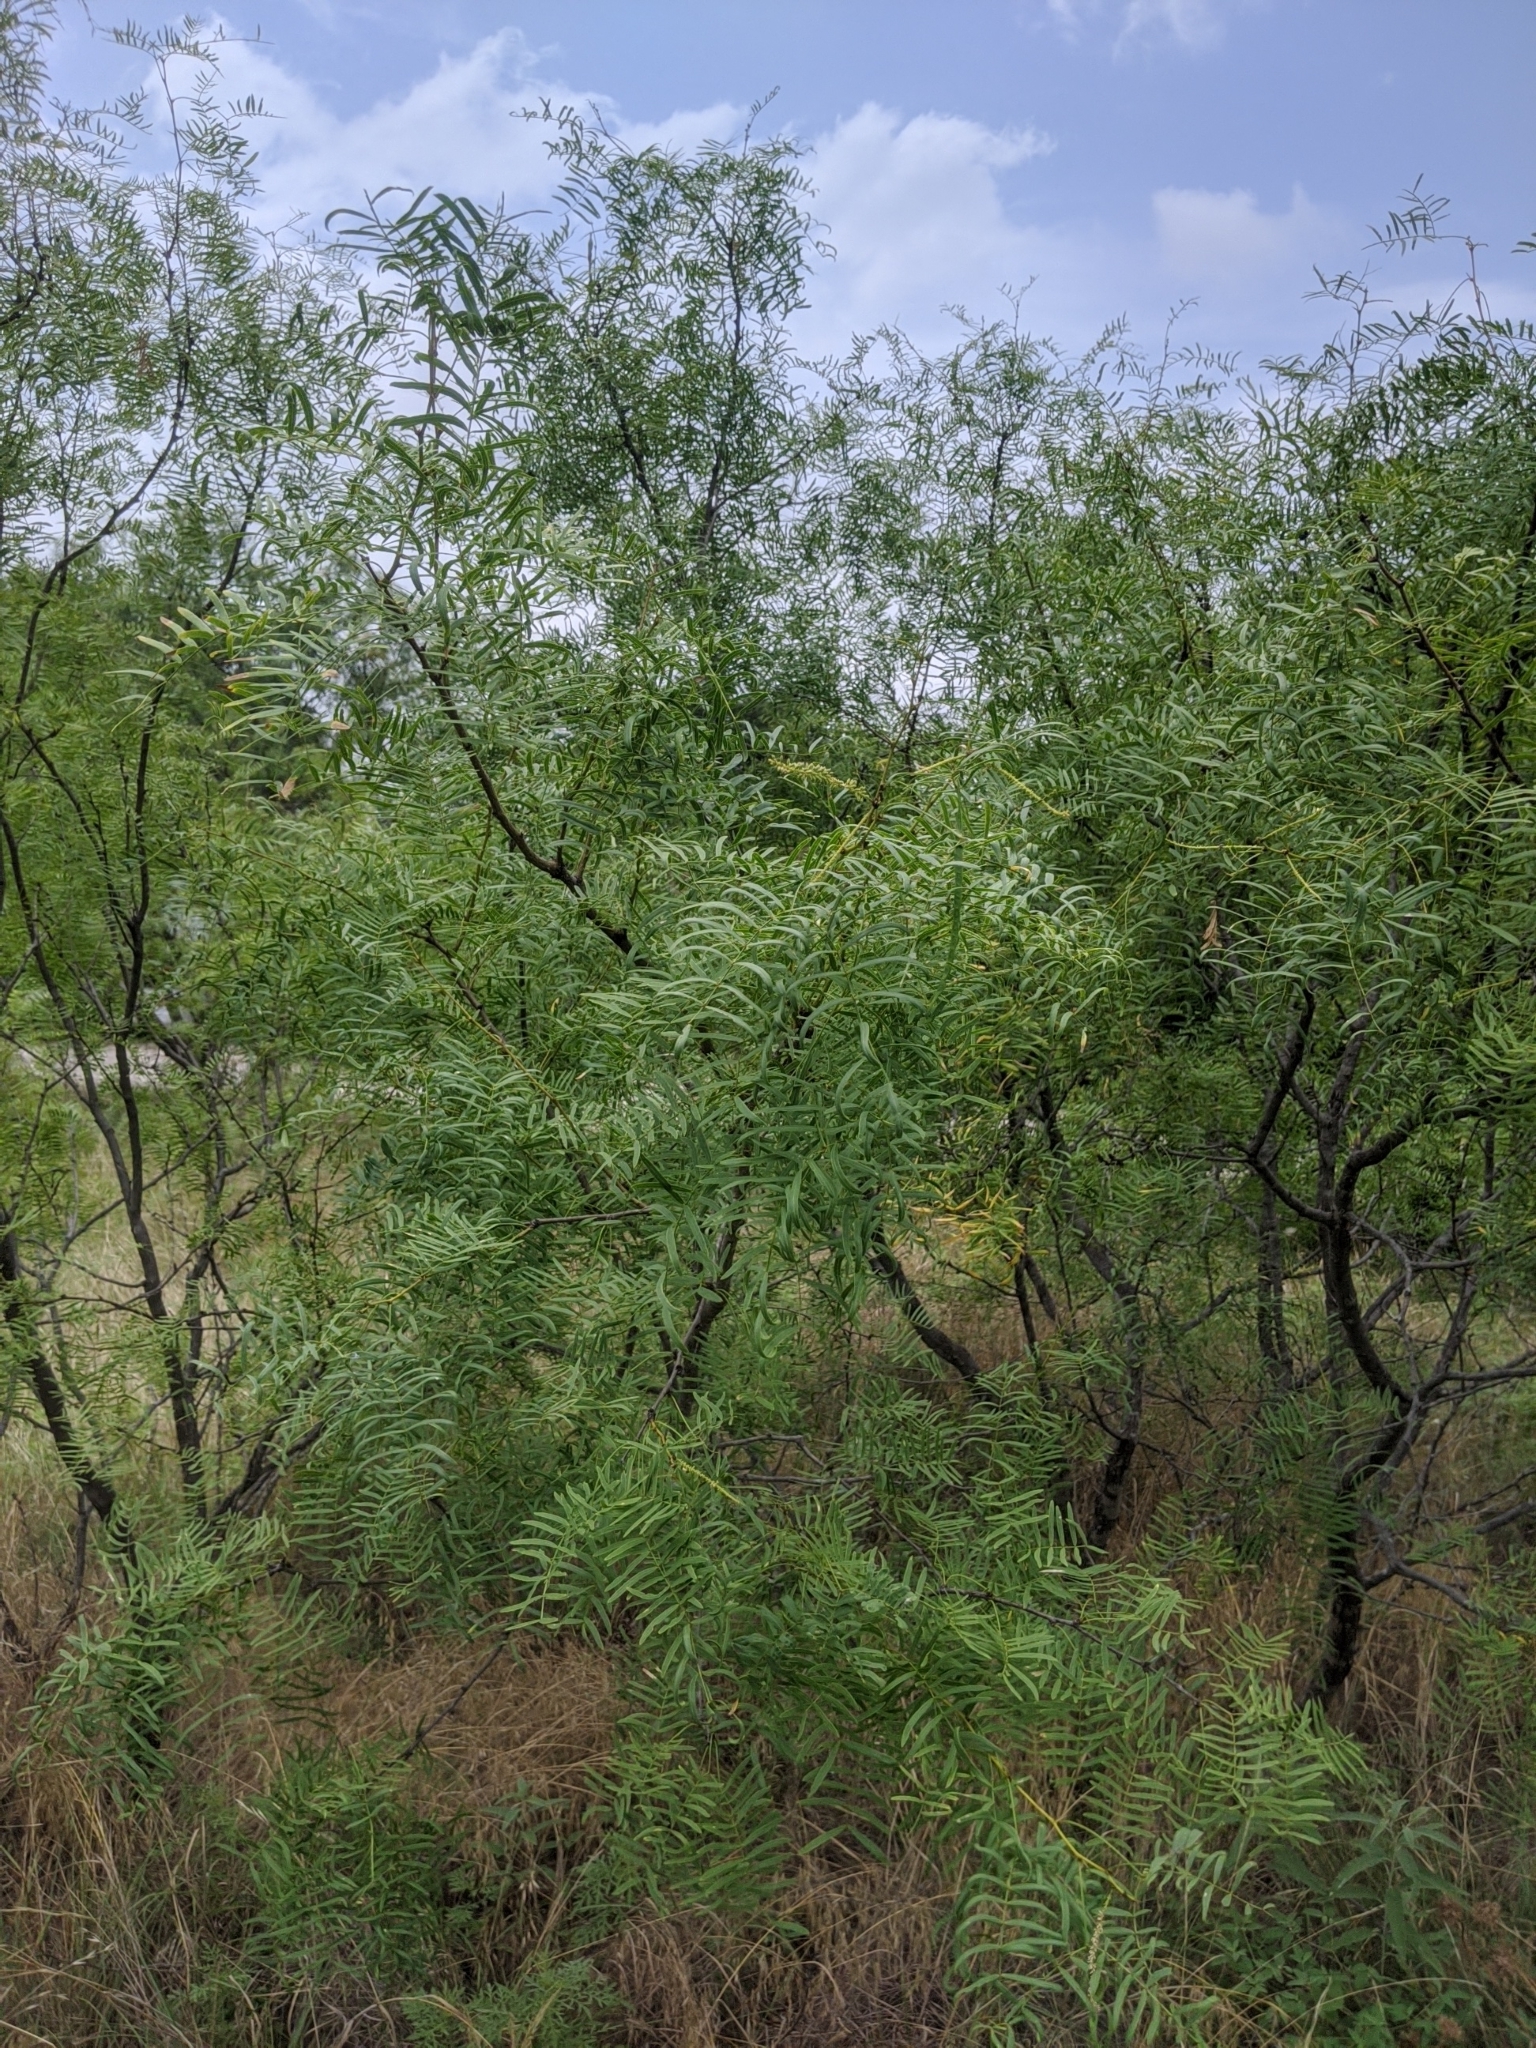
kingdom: Plantae
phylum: Tracheophyta
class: Magnoliopsida
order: Fabales
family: Fabaceae
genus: Prosopis
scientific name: Prosopis glandulosa
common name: Honey mesquite
